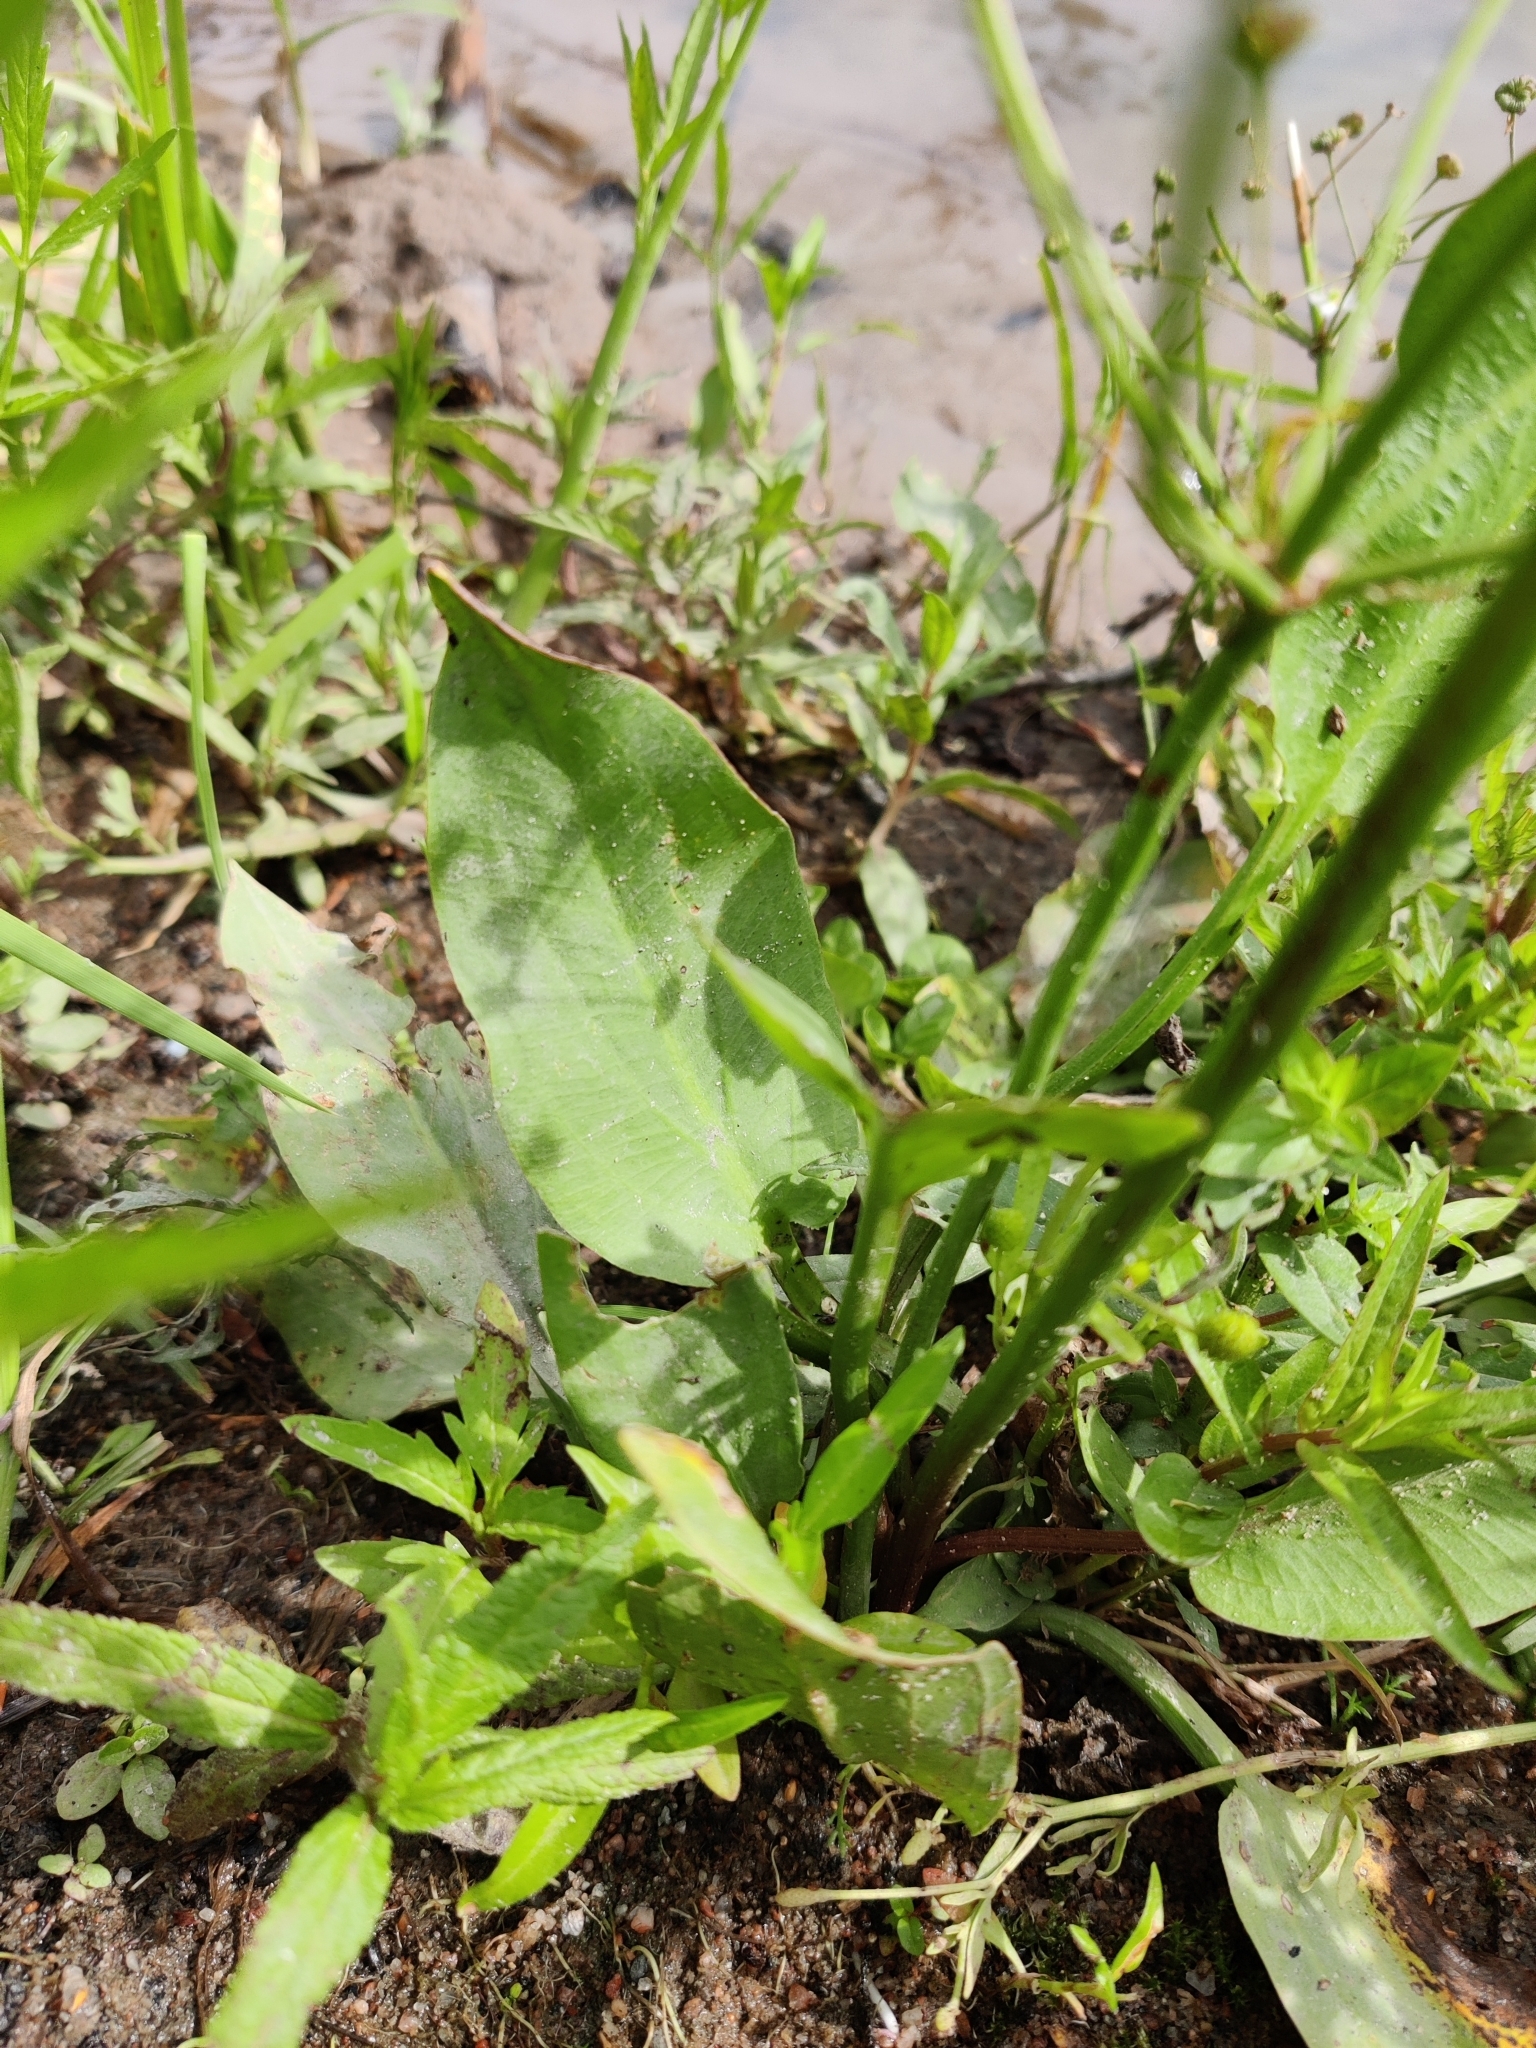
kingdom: Plantae
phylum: Tracheophyta
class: Liliopsida
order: Alismatales
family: Alismataceae
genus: Alisma
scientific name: Alisma plantago-aquatica
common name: Water-plantain
